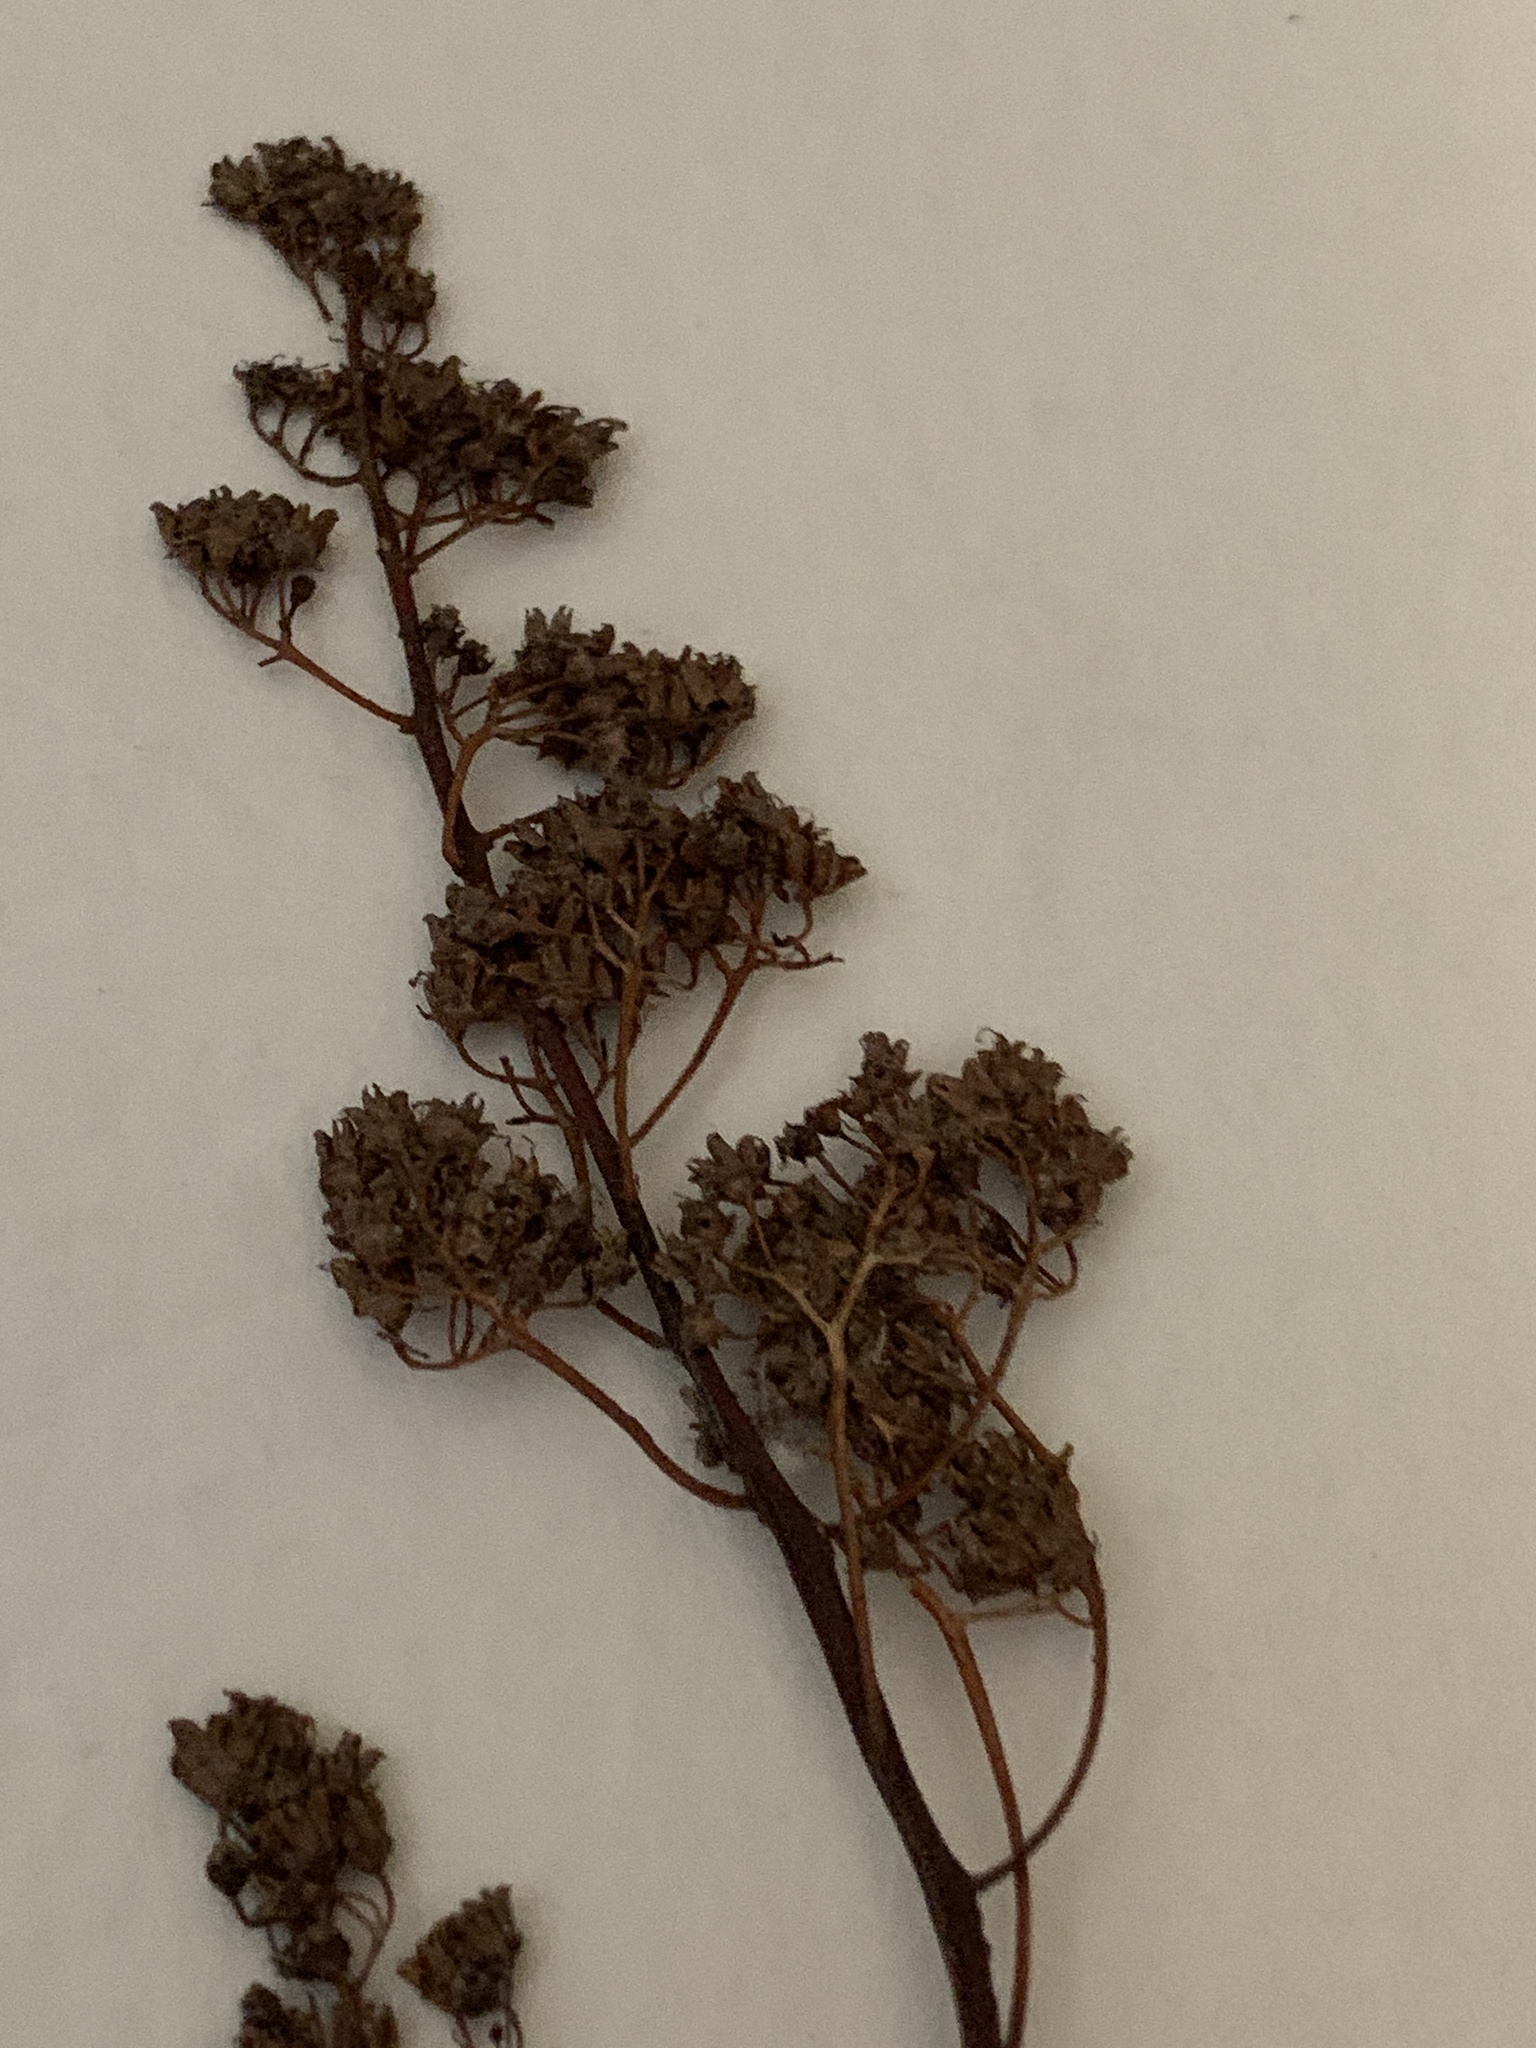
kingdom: Plantae
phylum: Tracheophyta
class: Magnoliopsida
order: Rosales
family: Rosaceae
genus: Spiraea
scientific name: Spiraea alba
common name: Pale bridewort
